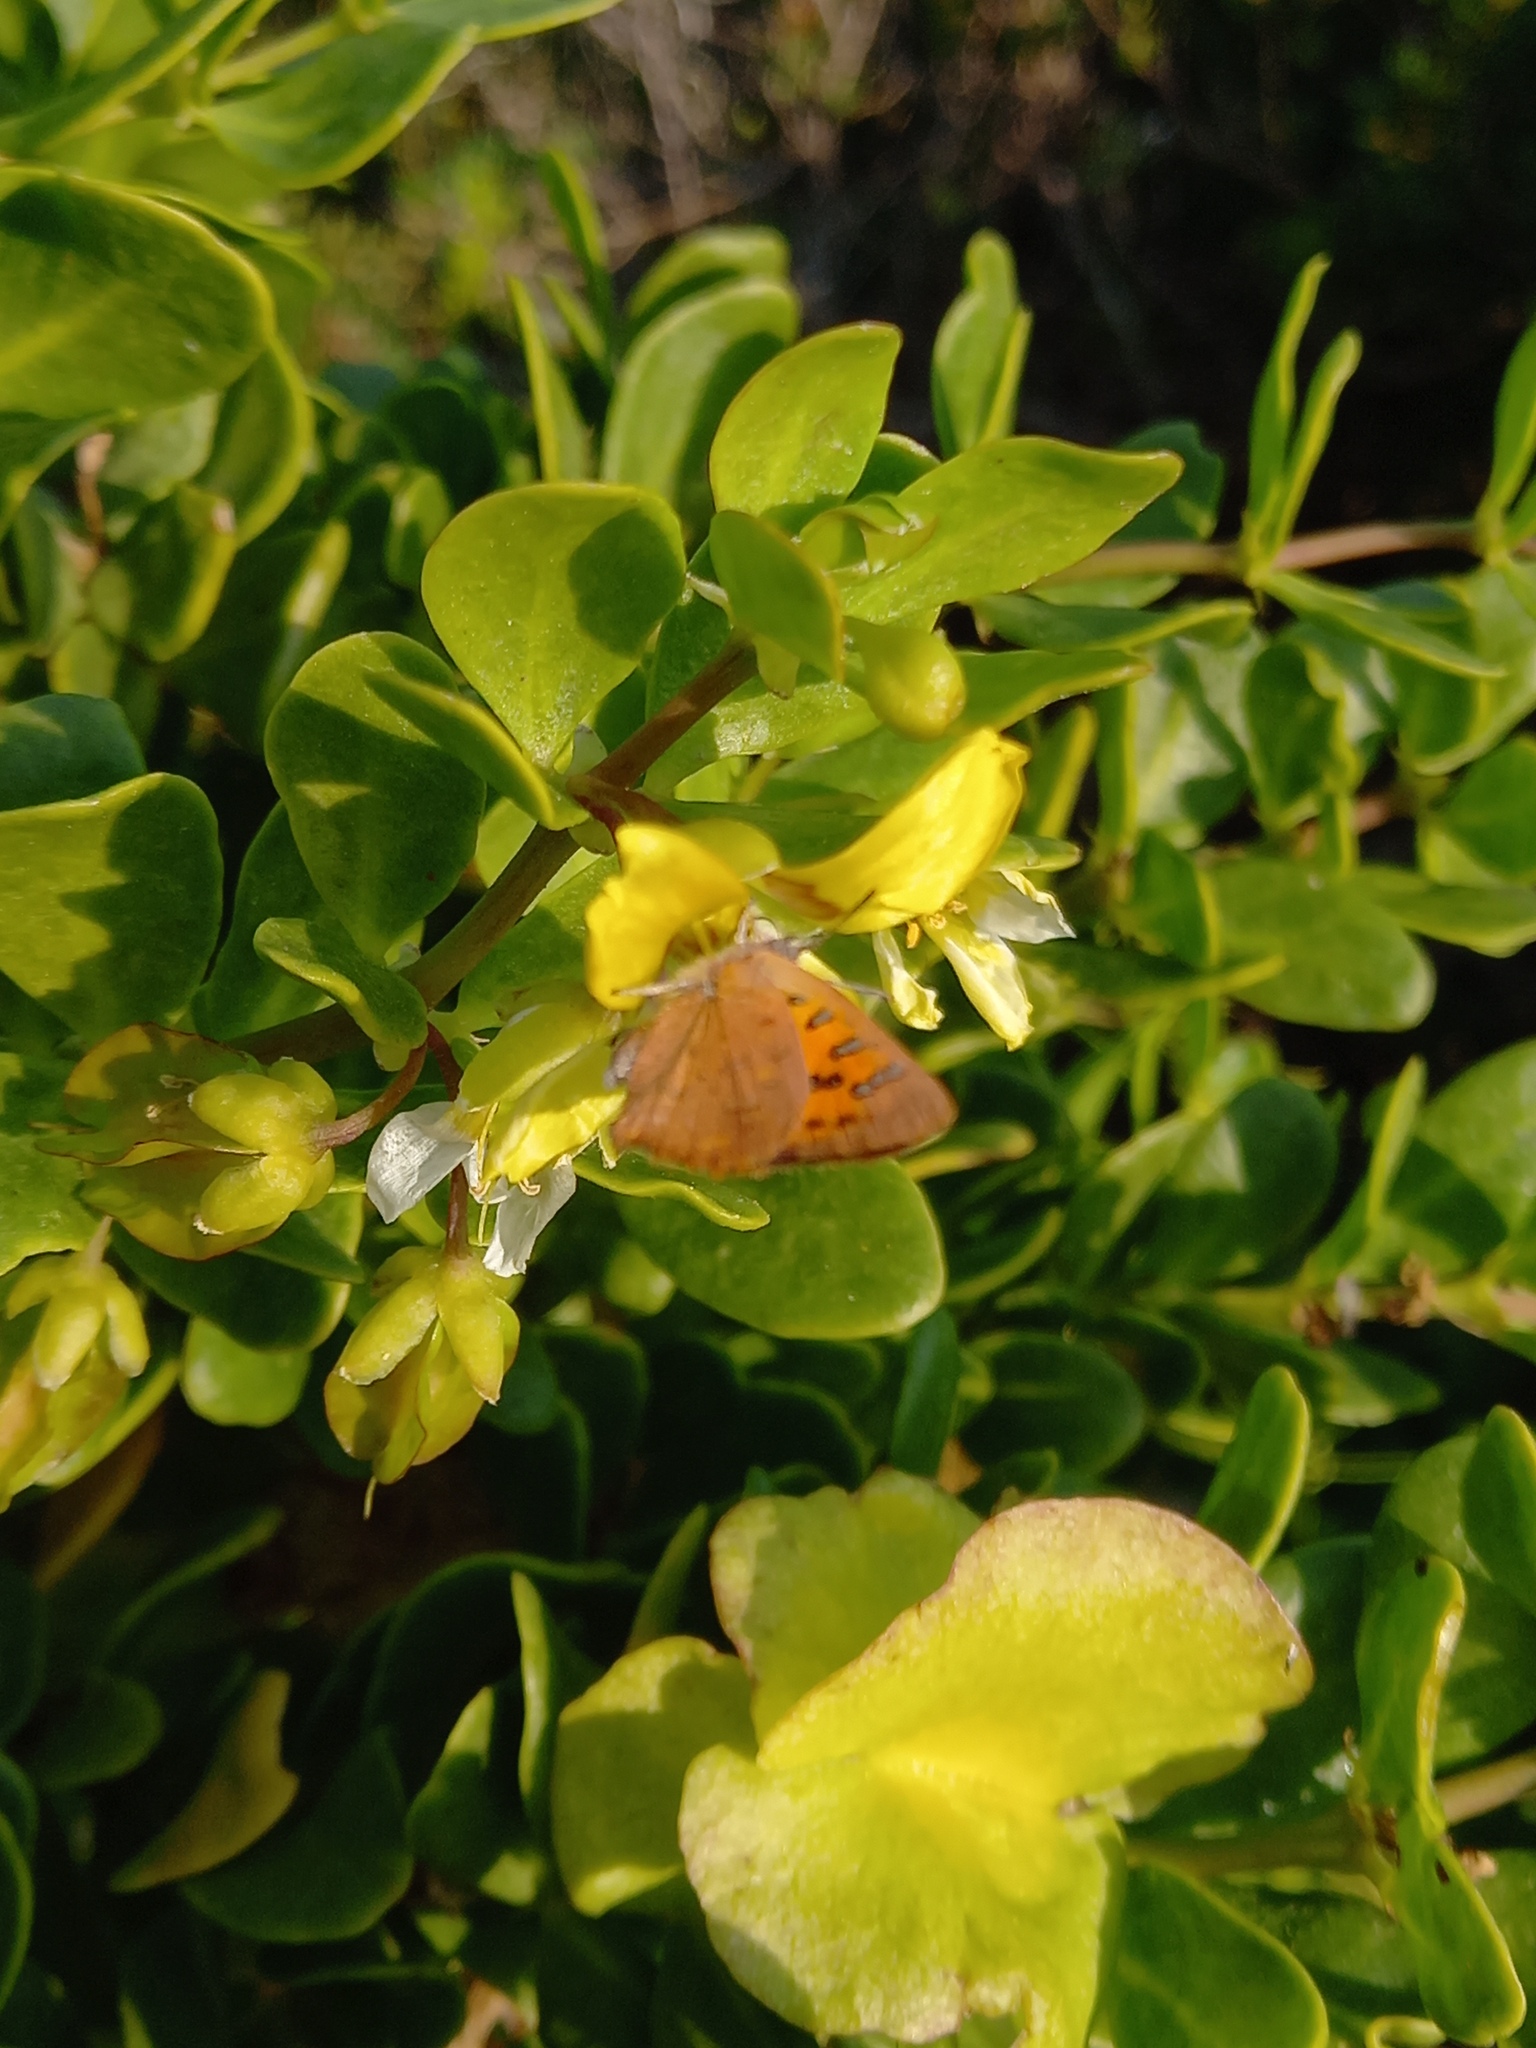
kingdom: Animalia
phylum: Arthropoda
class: Insecta
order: Lepidoptera
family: Lycaenidae
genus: Zeritis
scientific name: Zeritis chrysaor
